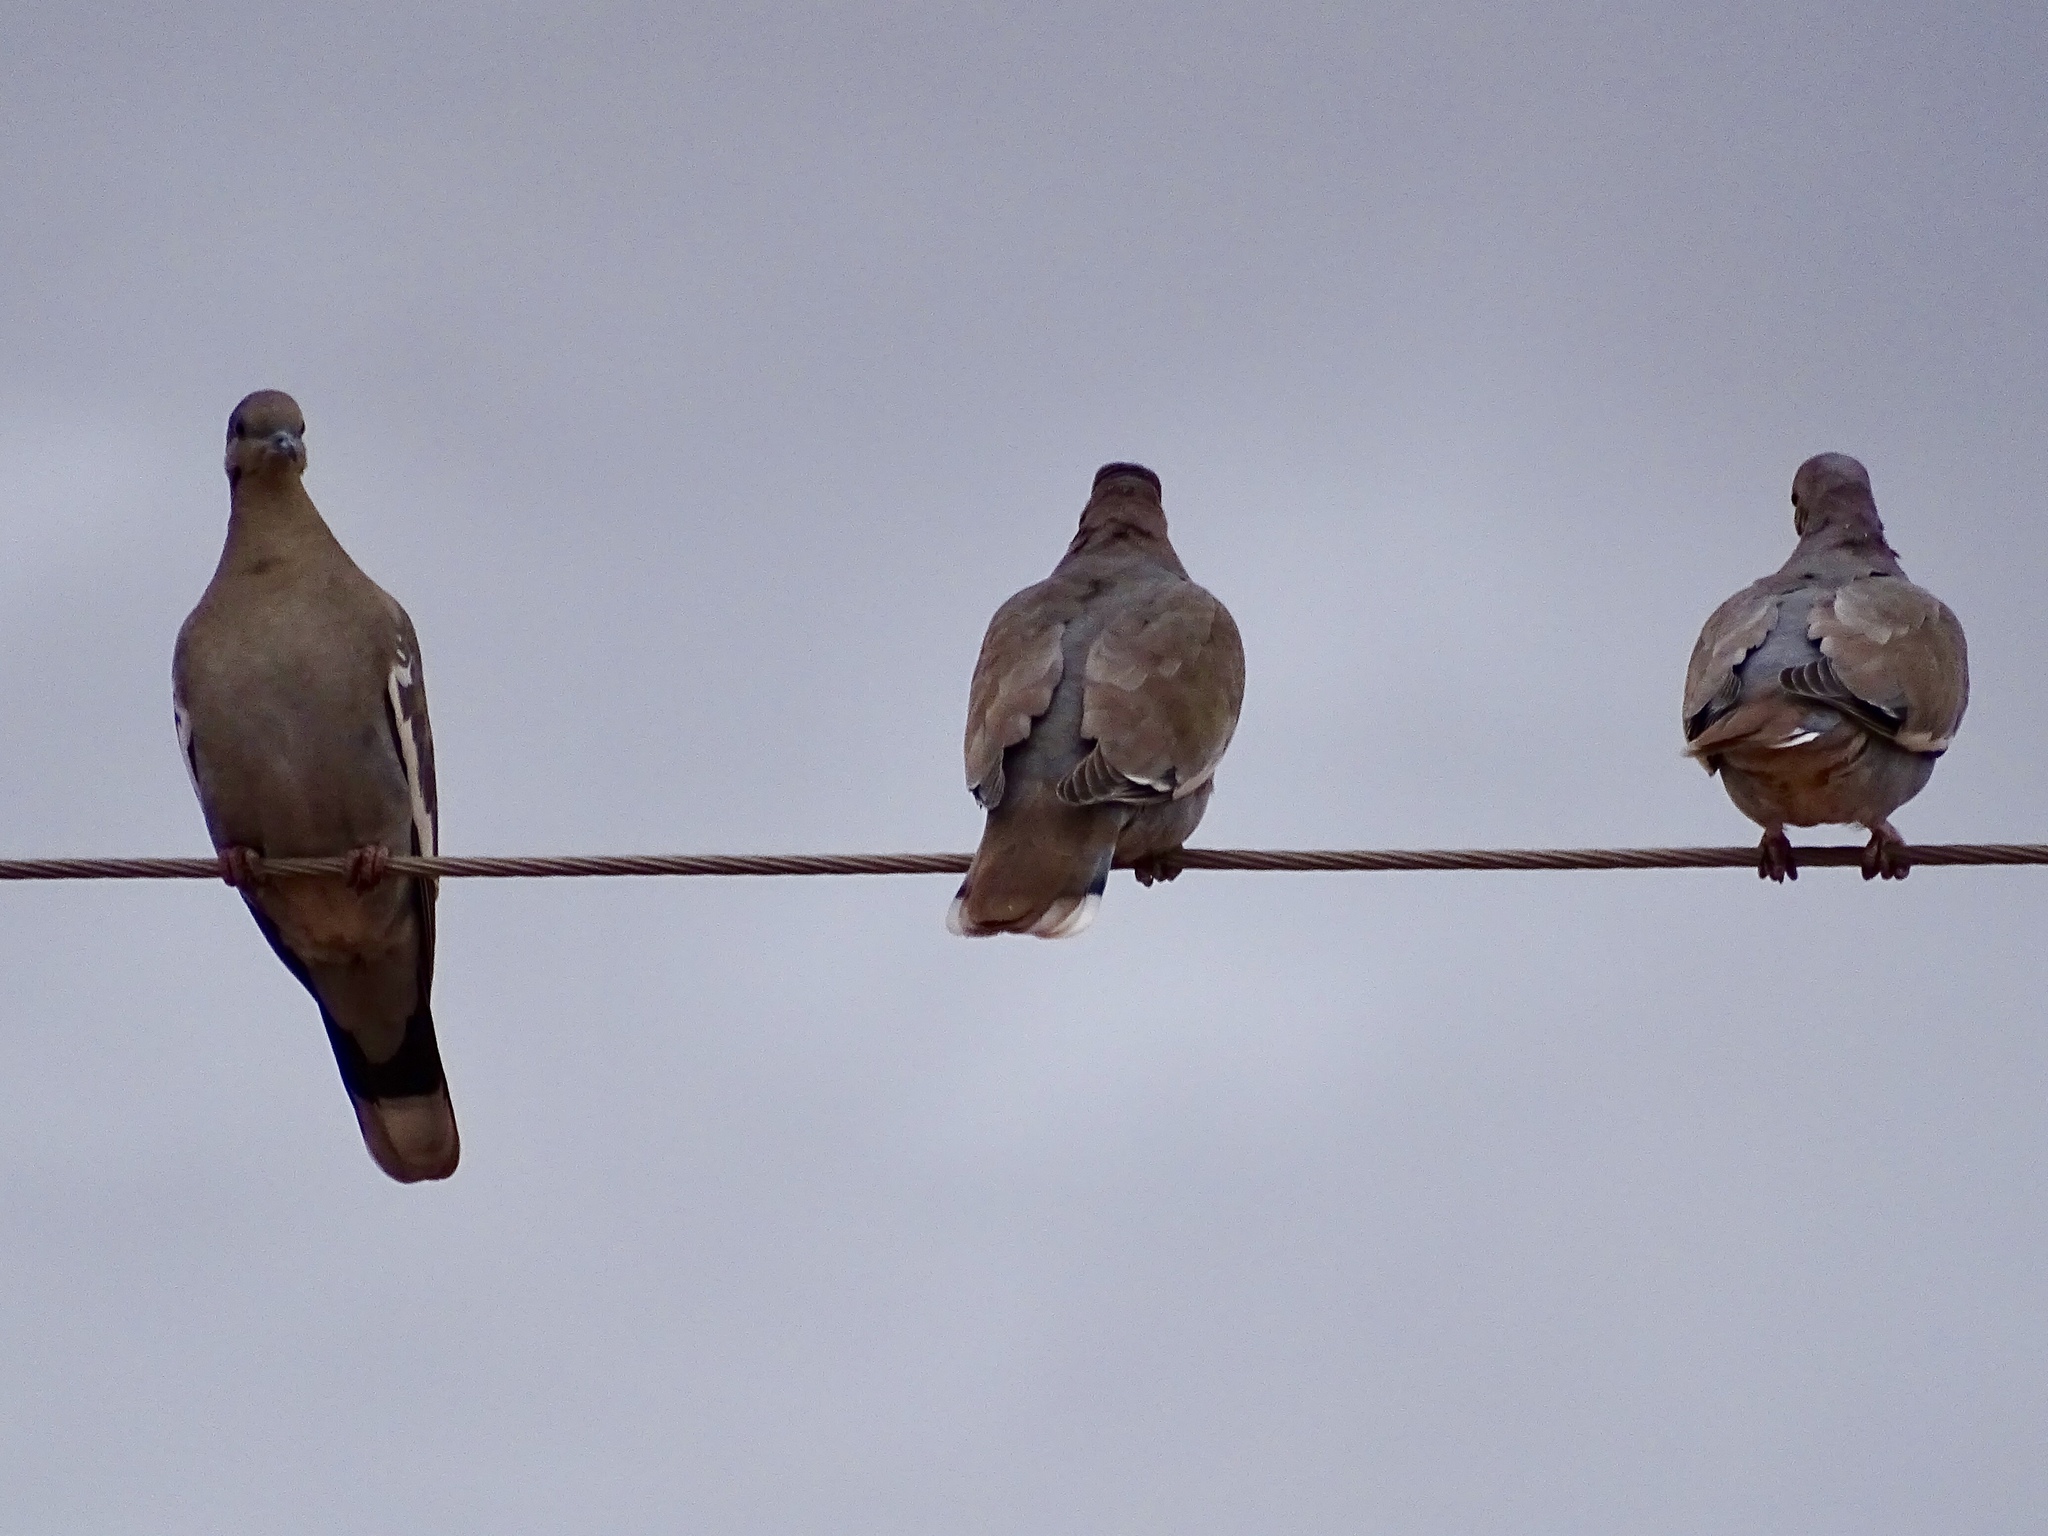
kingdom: Animalia
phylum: Chordata
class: Aves
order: Columbiformes
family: Columbidae
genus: Zenaida
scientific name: Zenaida asiatica
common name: White-winged dove
